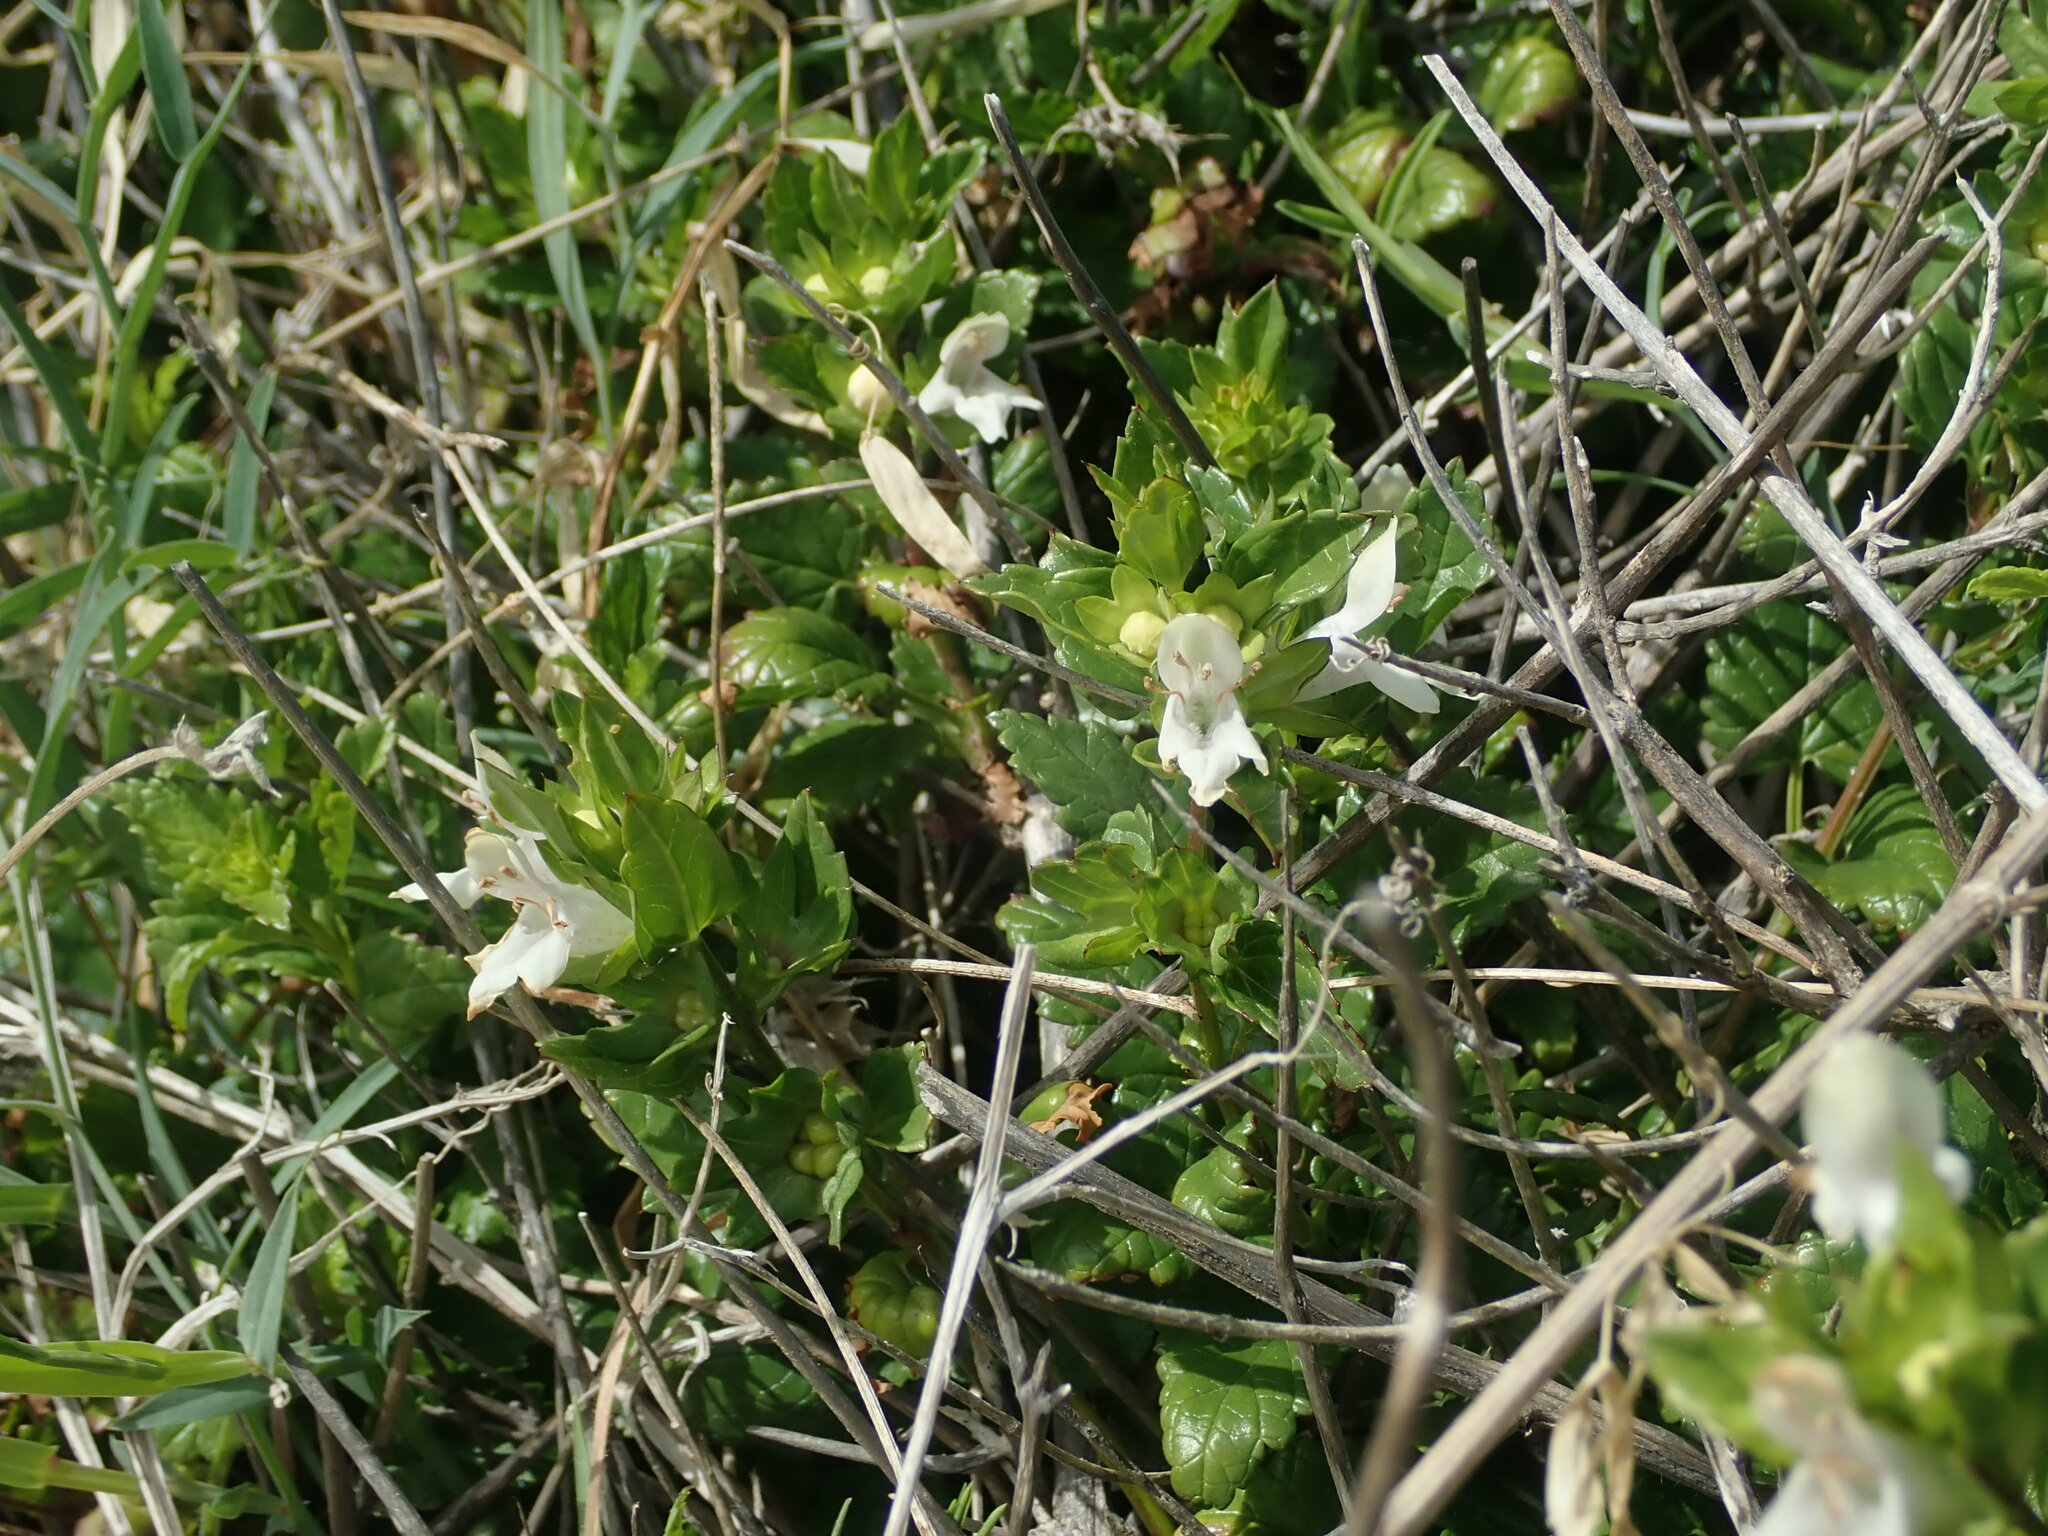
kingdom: Plantae
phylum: Tracheophyta
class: Magnoliopsida
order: Lamiales
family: Lamiaceae
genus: Prasium
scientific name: Prasium majus
